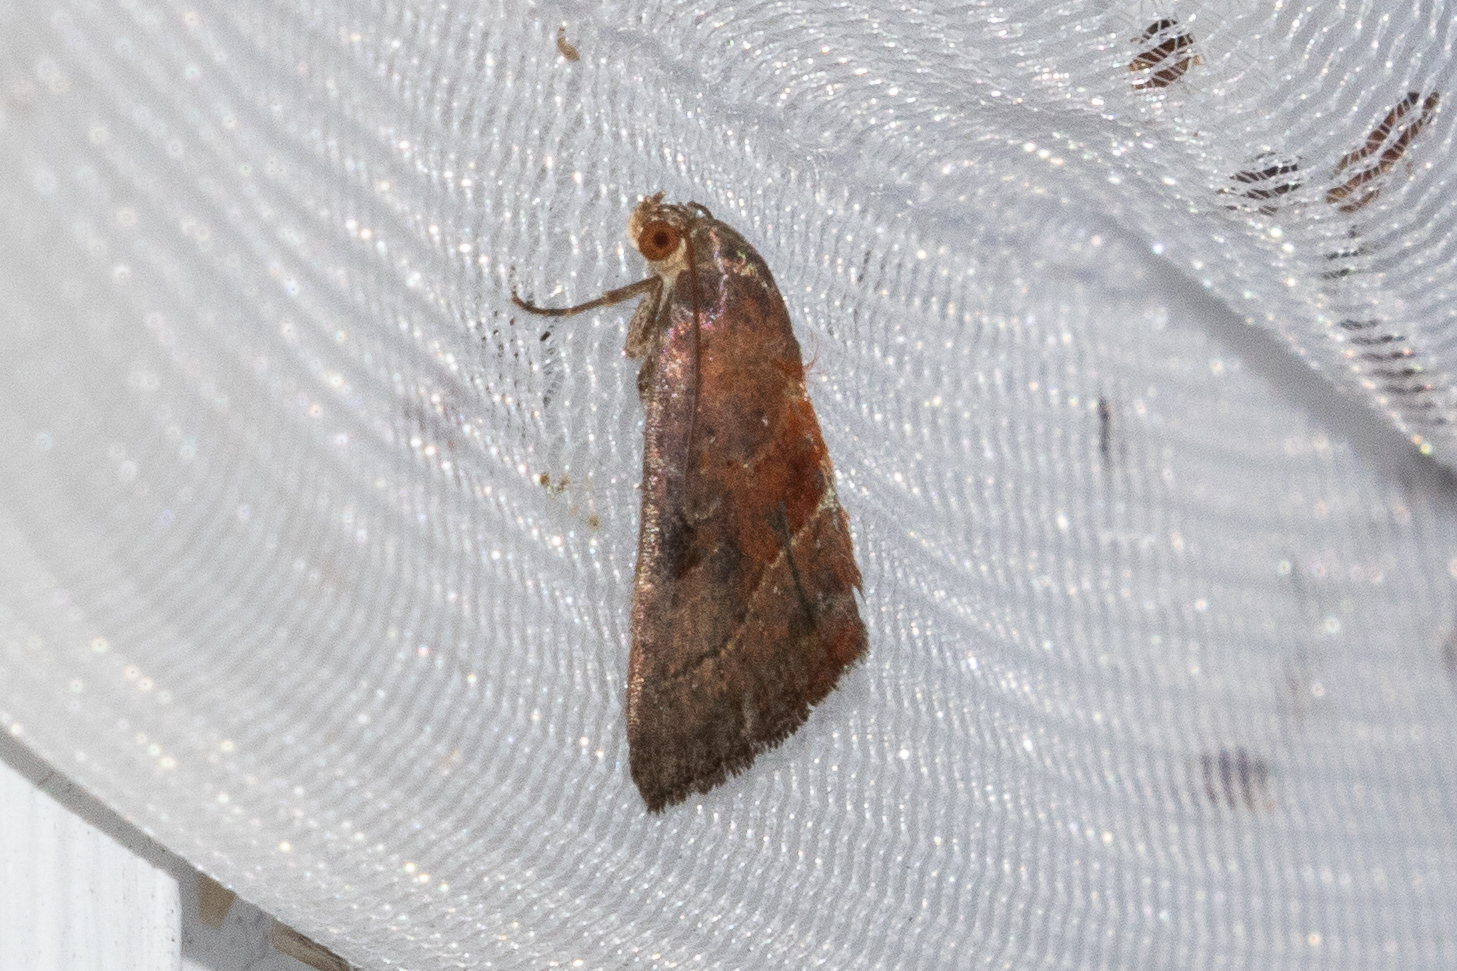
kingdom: Animalia
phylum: Arthropoda
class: Insecta
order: Lepidoptera
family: Noctuidae
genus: Galgula
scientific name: Galgula partita
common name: Wedgeling
